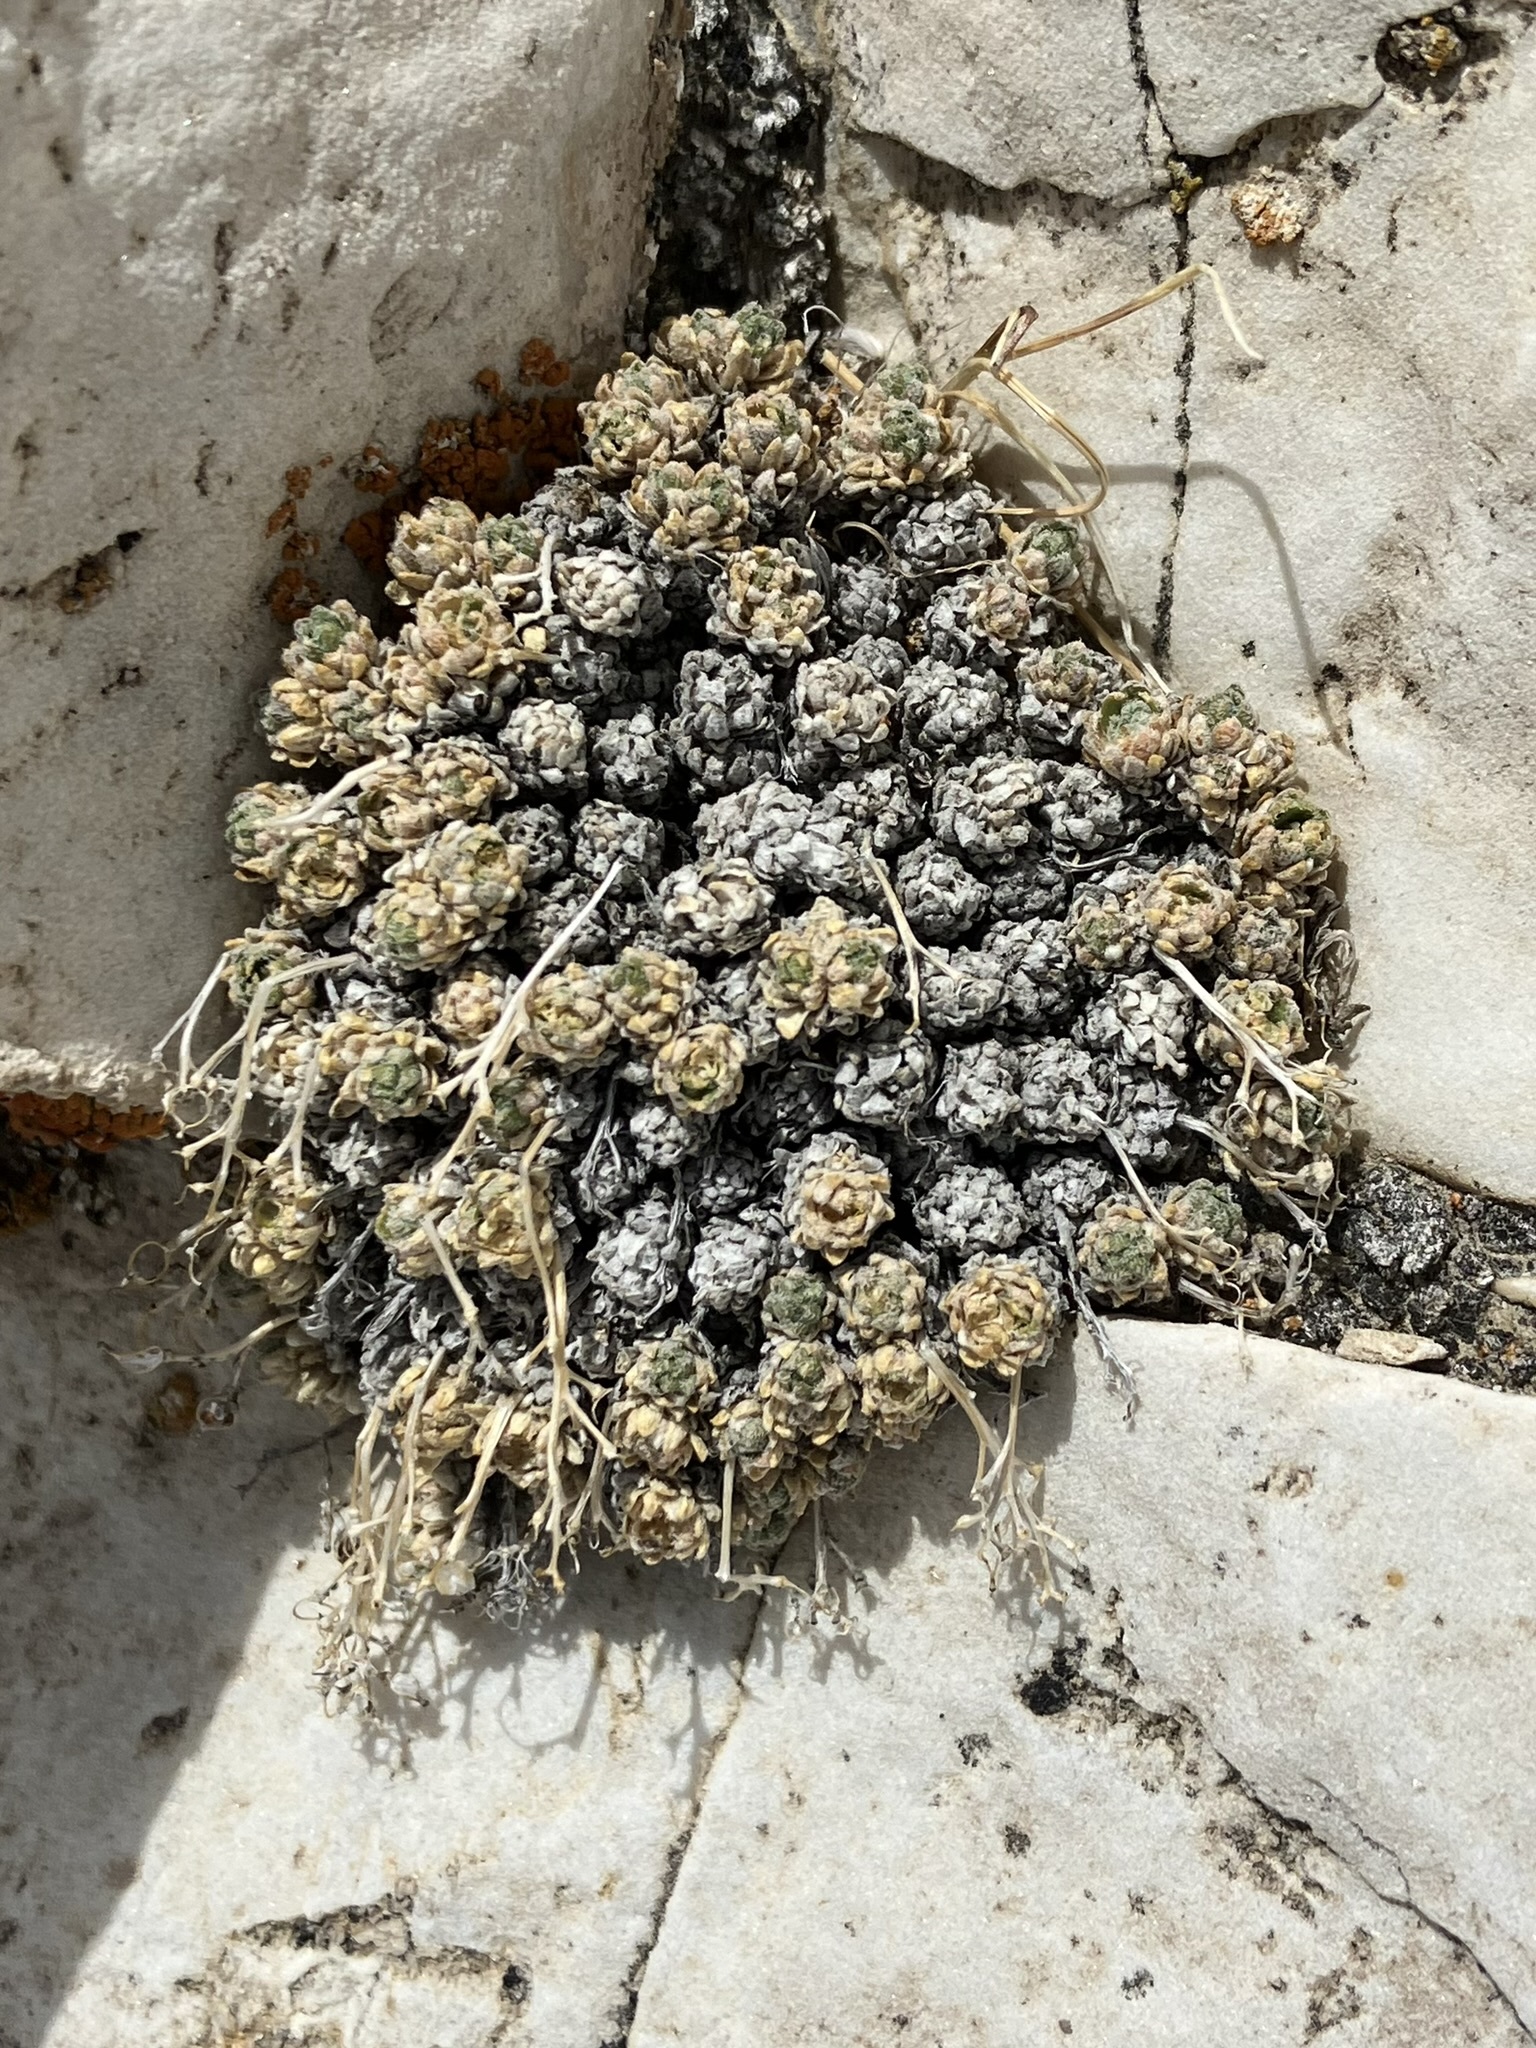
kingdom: Plantae
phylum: Tracheophyta
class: Magnoliopsida
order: Brassicales
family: Brassicaceae
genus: Draba
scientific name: Draba oligosperma
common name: Few-seed draba
